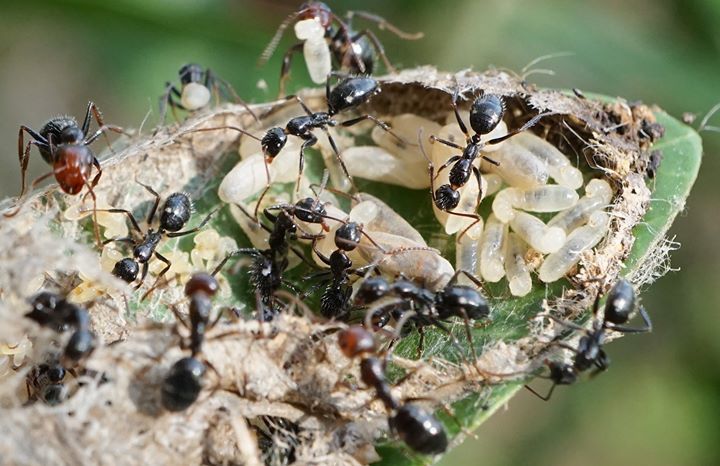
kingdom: Animalia
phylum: Arthropoda
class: Insecta
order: Hymenoptera
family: Formicidae
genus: Camponotus
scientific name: Camponotus sexguttatus
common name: Neotropical carpenter ant
